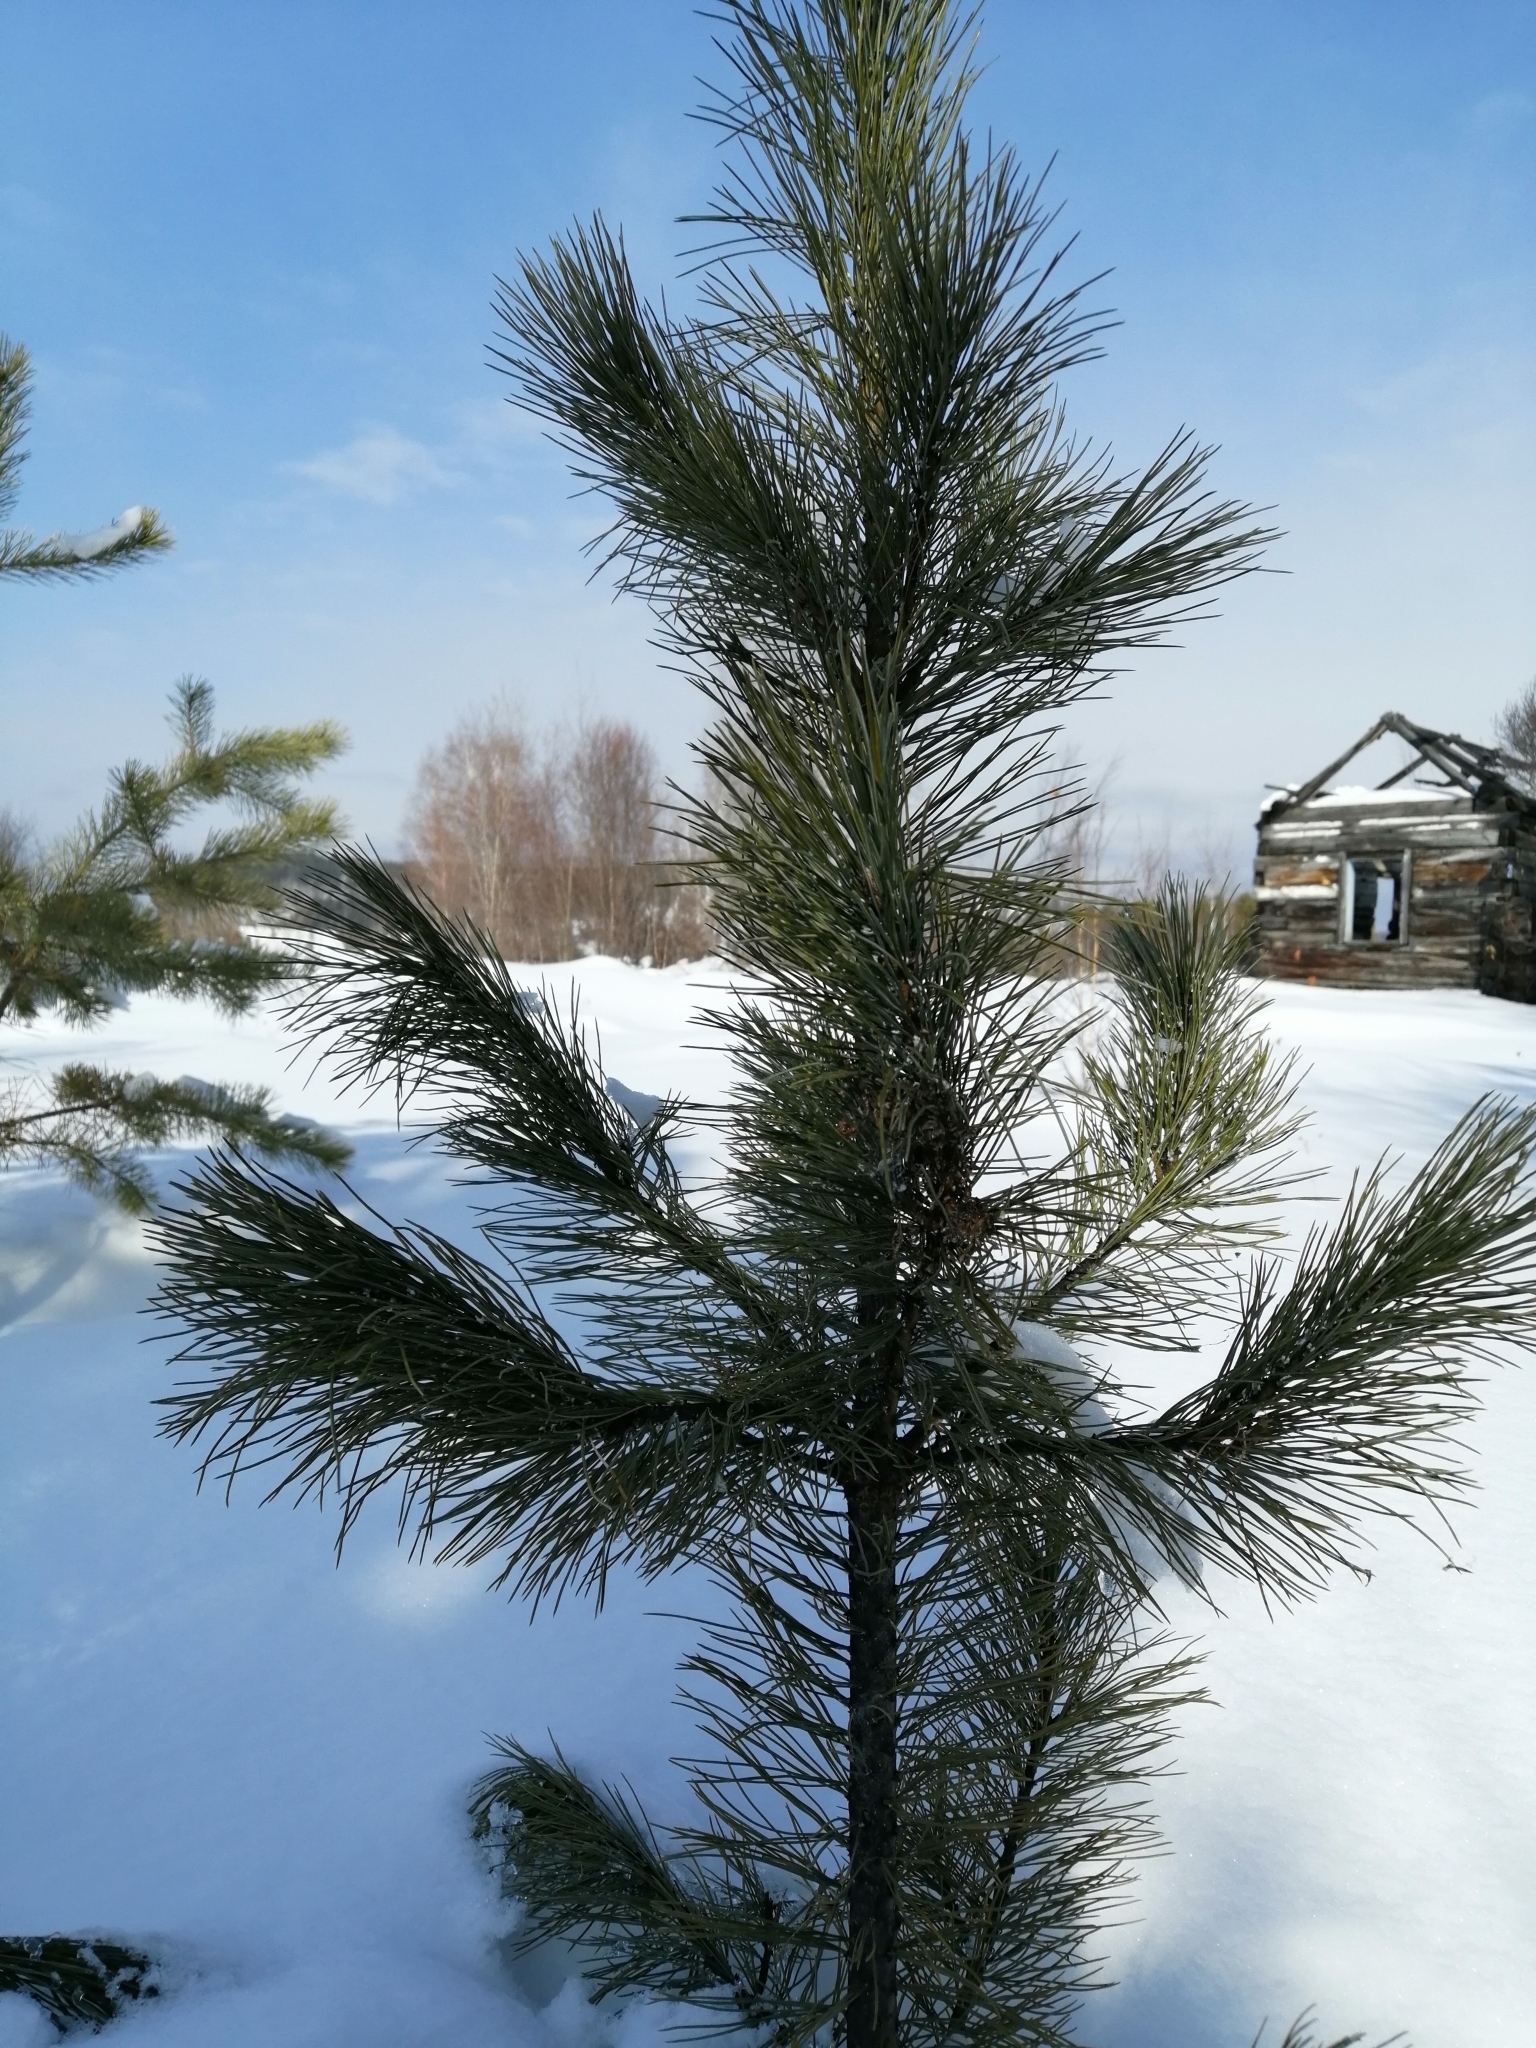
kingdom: Plantae
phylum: Tracheophyta
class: Pinopsida
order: Pinales
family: Pinaceae
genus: Pinus
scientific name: Pinus sibirica
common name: Siberian pine
